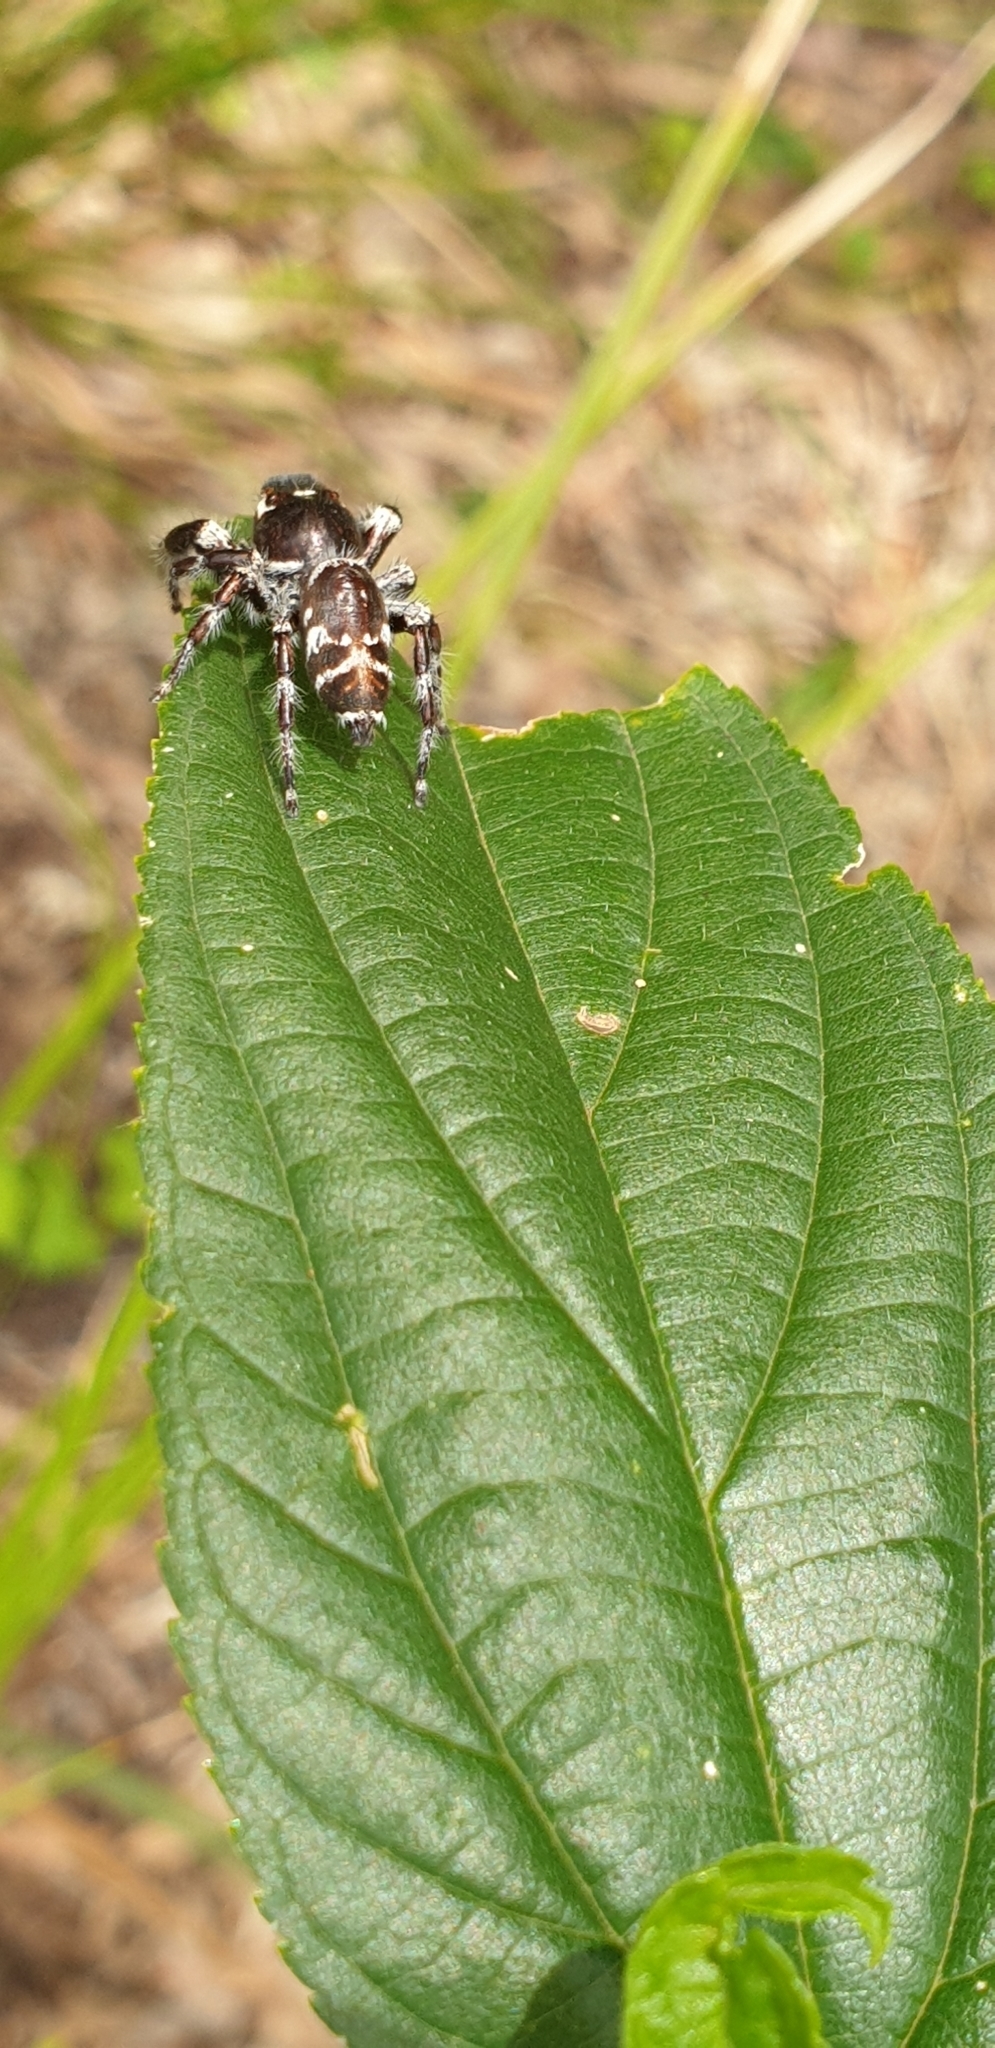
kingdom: Animalia
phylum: Arthropoda
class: Arachnida
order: Araneae
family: Salticidae
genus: Sandalodes
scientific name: Sandalodes superbus
